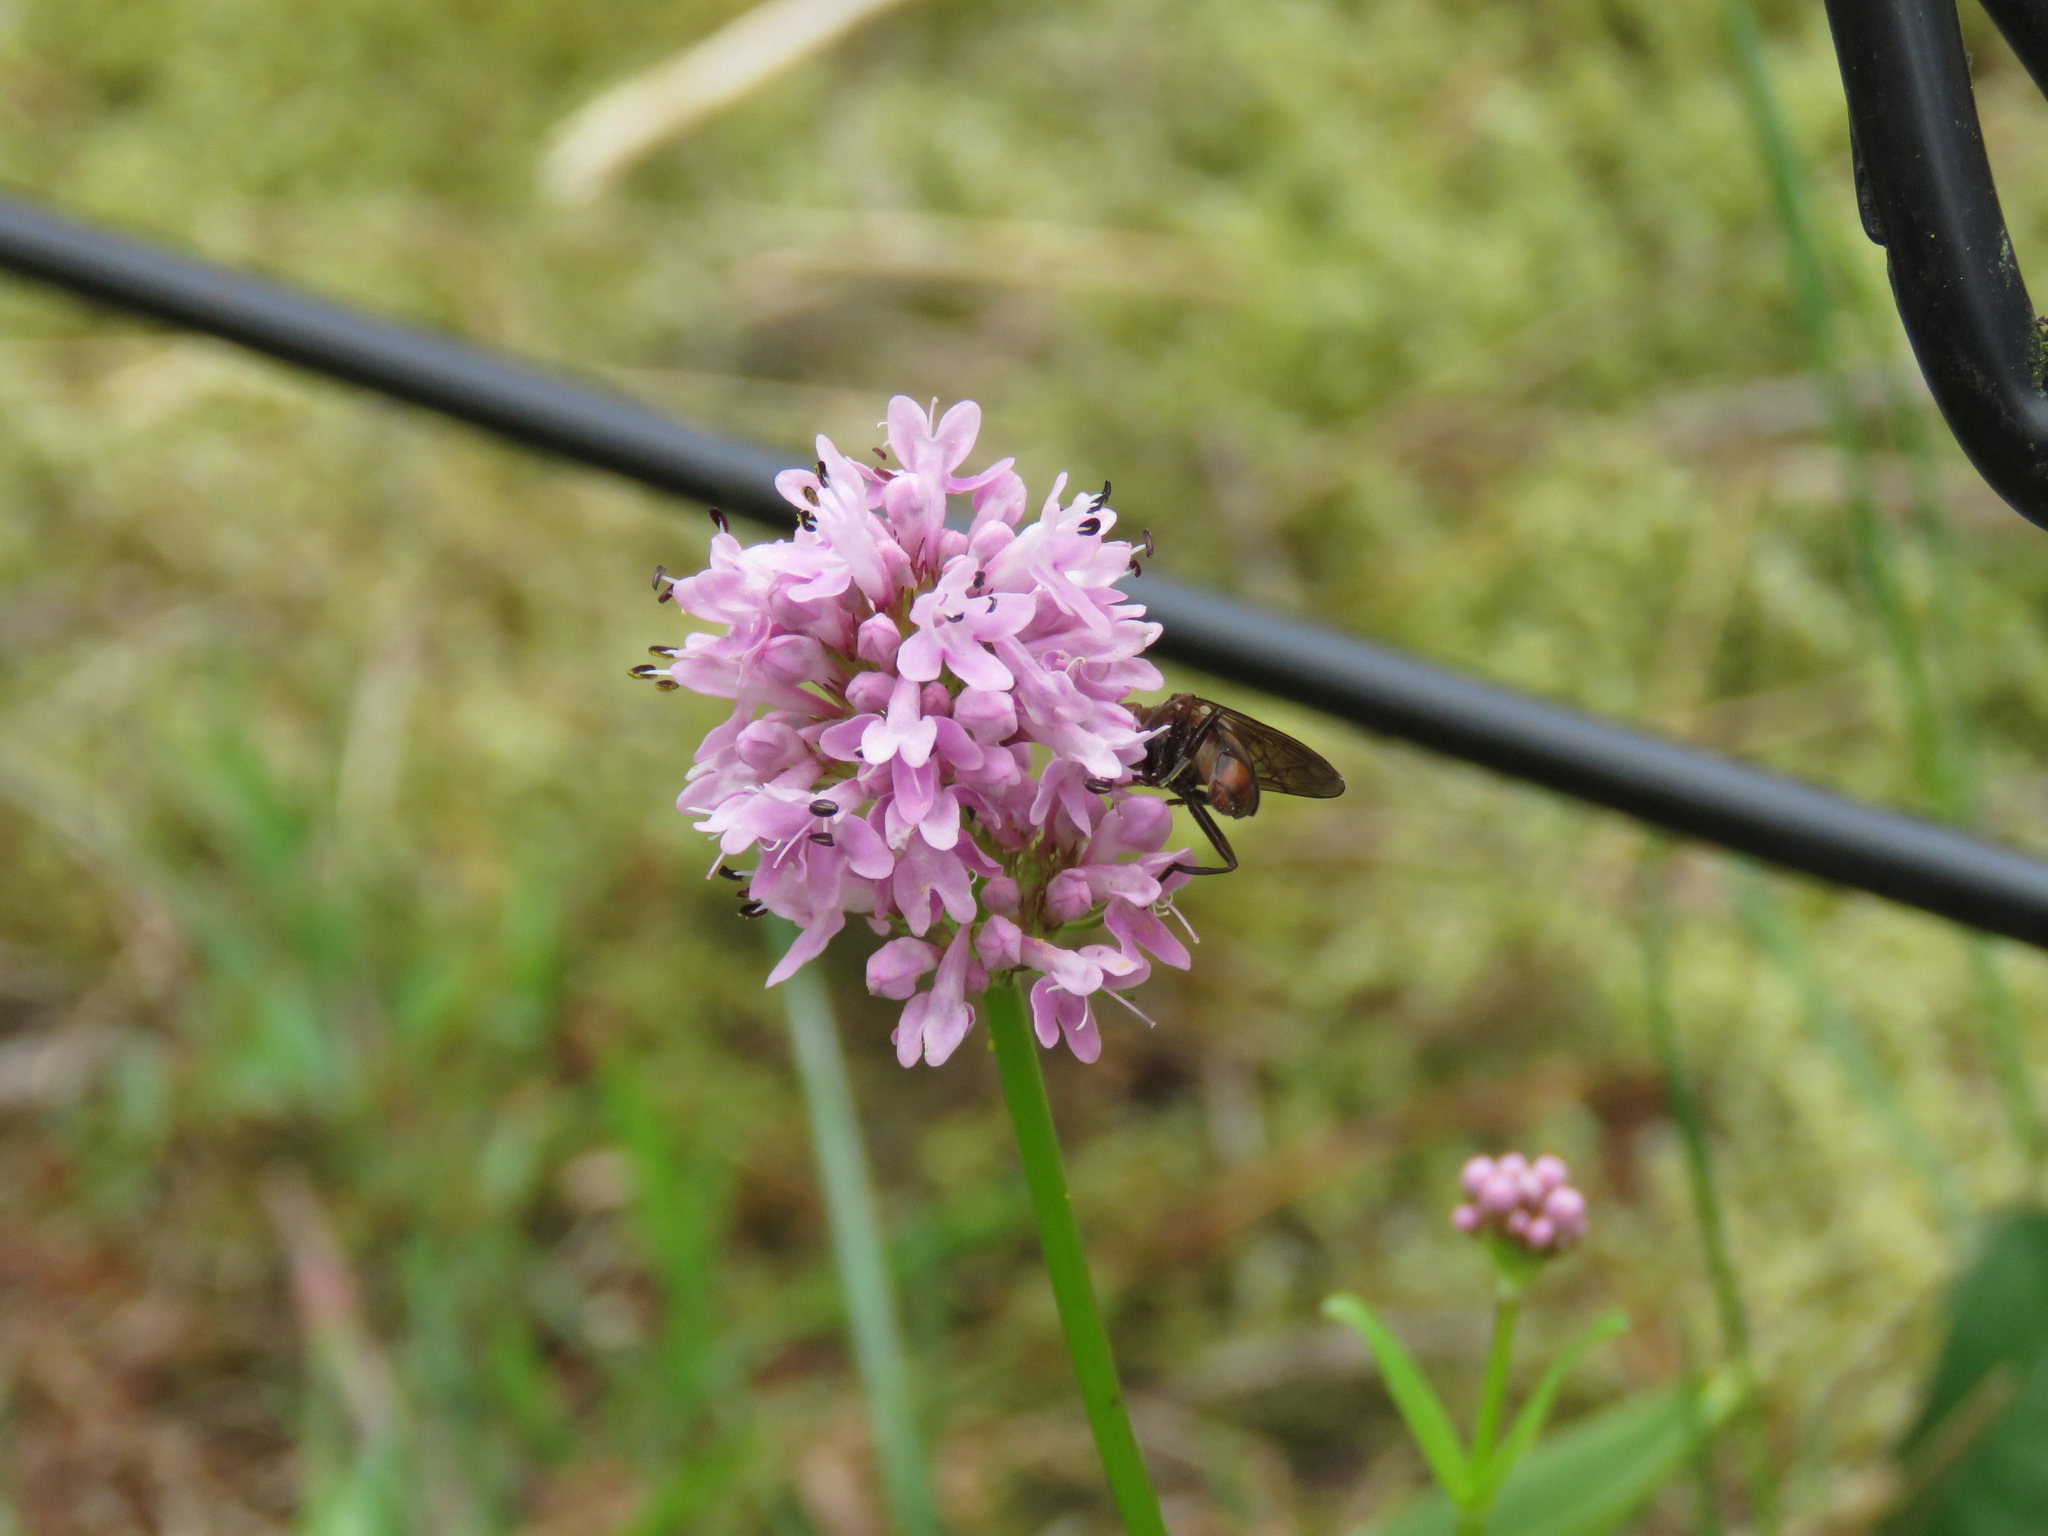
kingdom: Plantae
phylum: Tracheophyta
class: Magnoliopsida
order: Dipsacales
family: Caprifoliaceae
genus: Plectritis
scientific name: Plectritis congesta
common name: Pink plectritis
